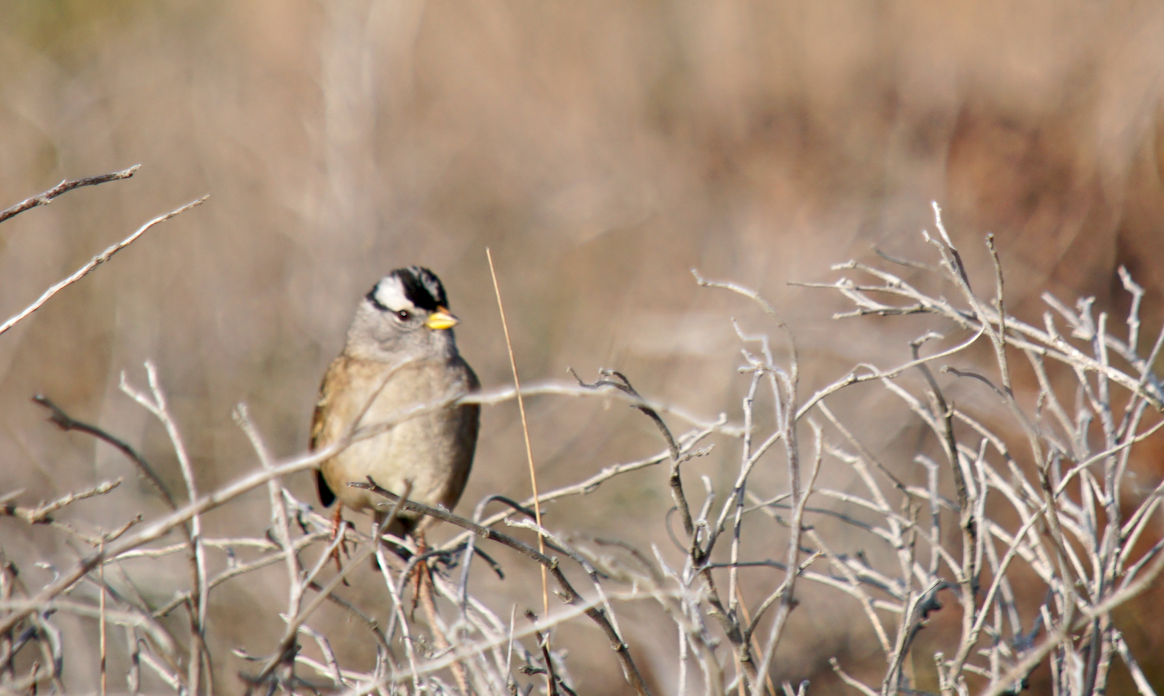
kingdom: Animalia
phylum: Chordata
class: Aves
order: Passeriformes
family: Passerellidae
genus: Zonotrichia
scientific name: Zonotrichia leucophrys
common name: White-crowned sparrow
